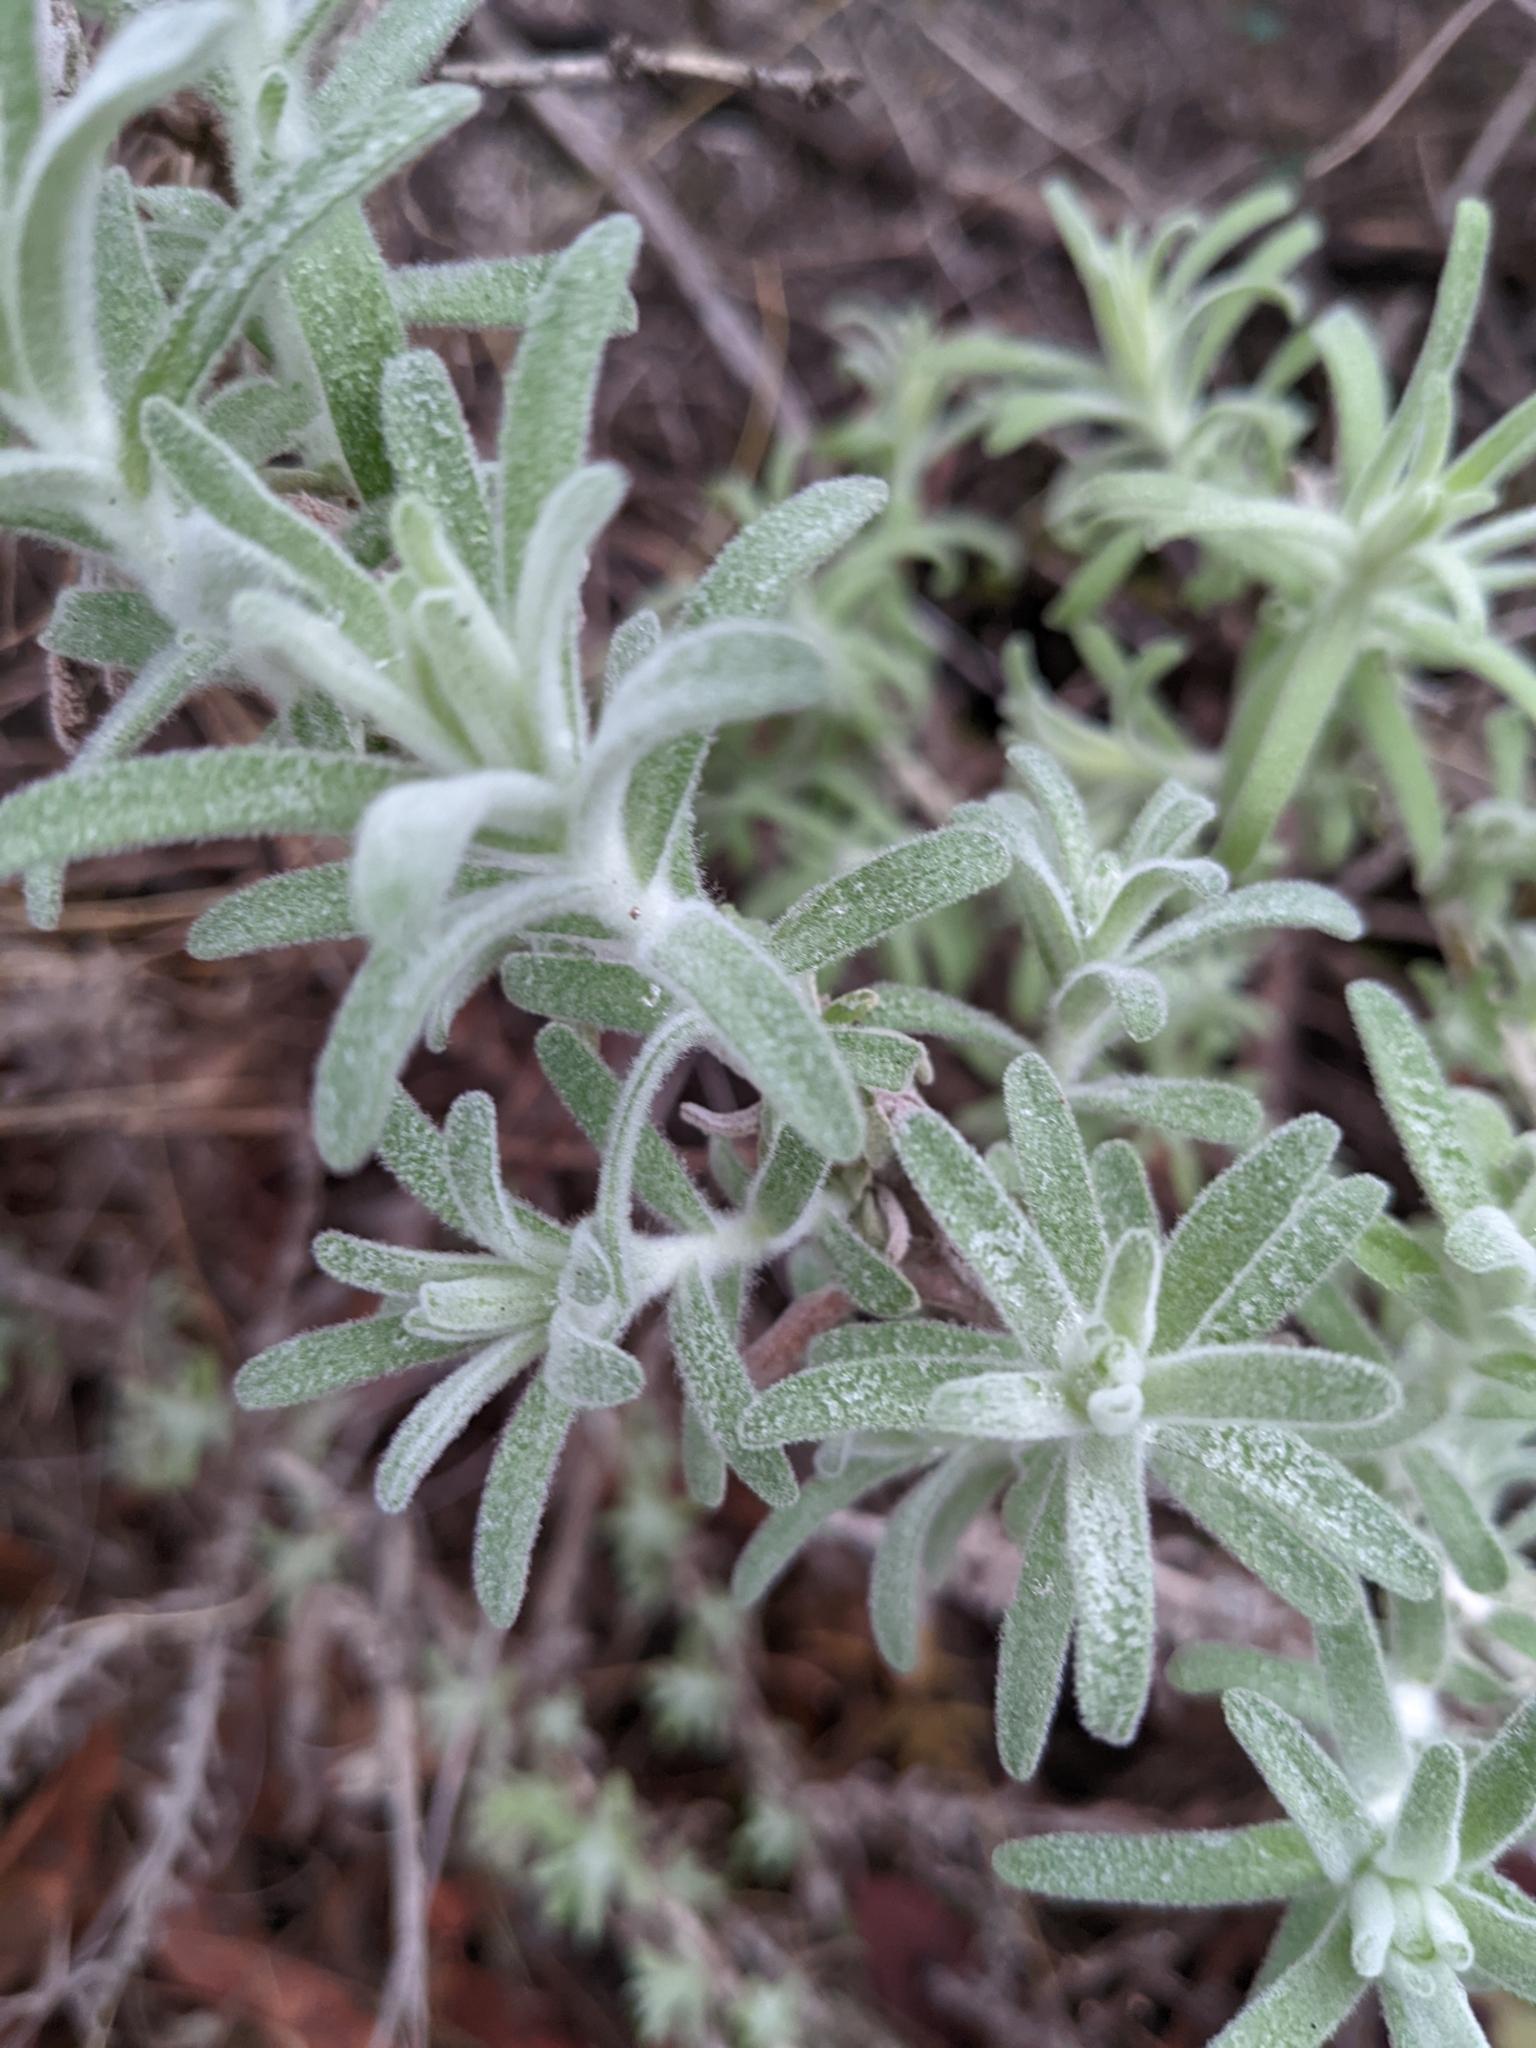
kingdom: Plantae
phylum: Tracheophyta
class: Magnoliopsida
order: Lamiales
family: Orobanchaceae
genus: Castilleja
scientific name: Castilleja foliolosa
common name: Woolly indian paintbrush
